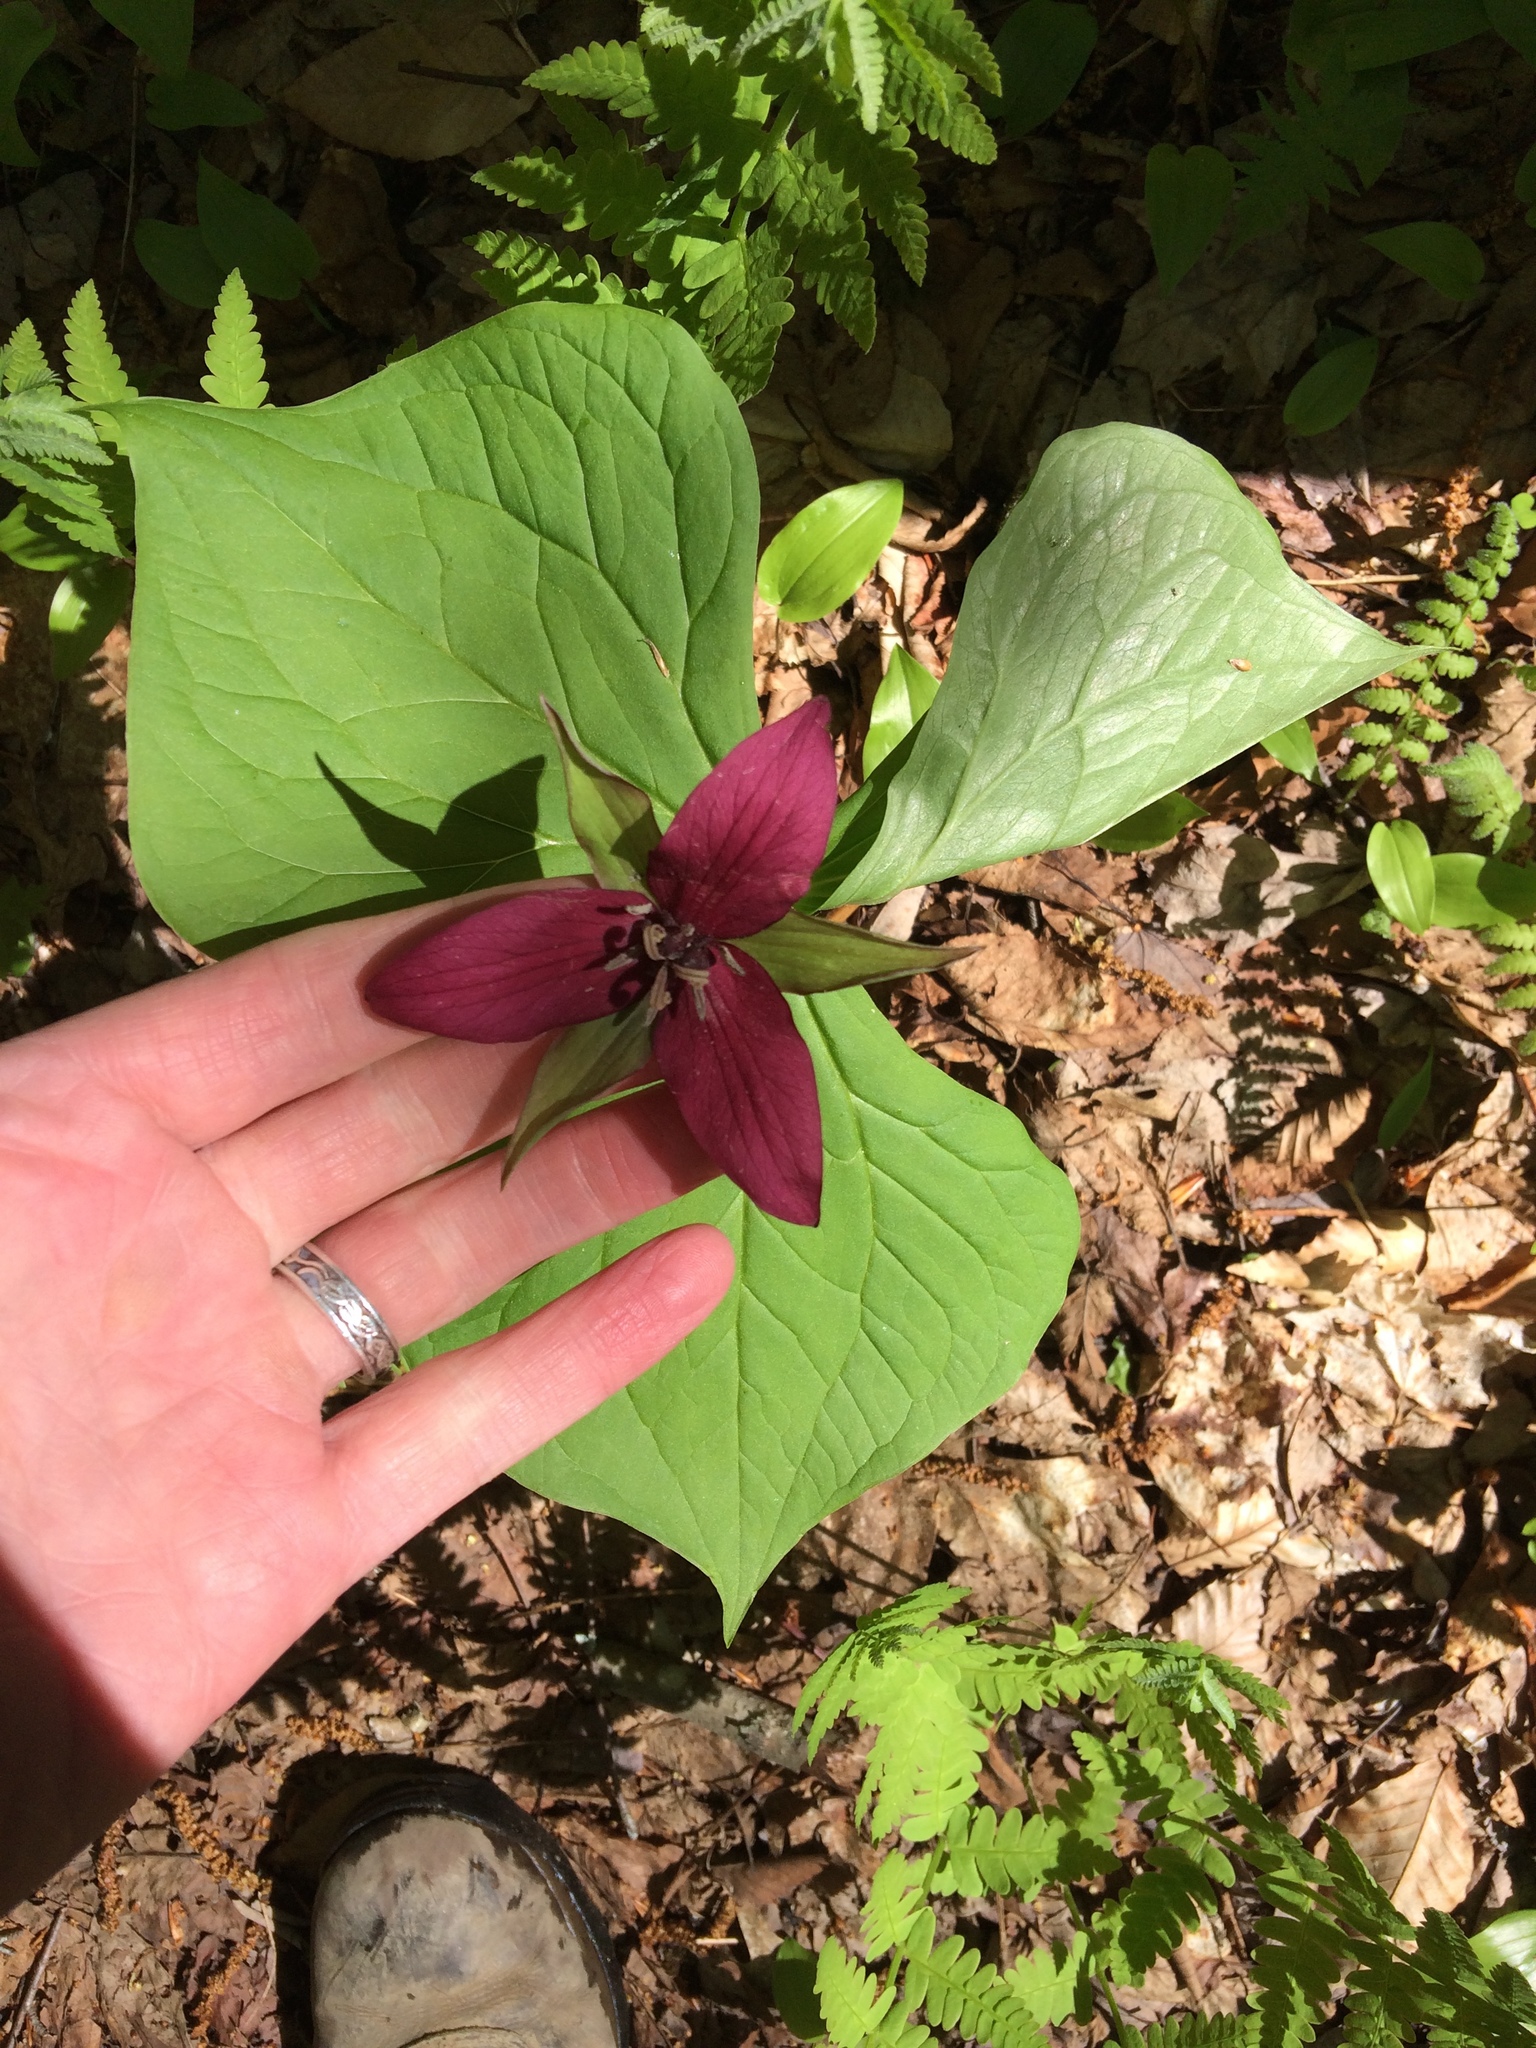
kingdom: Plantae
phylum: Tracheophyta
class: Liliopsida
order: Liliales
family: Melanthiaceae
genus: Trillium
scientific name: Trillium erectum
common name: Purple trillium
